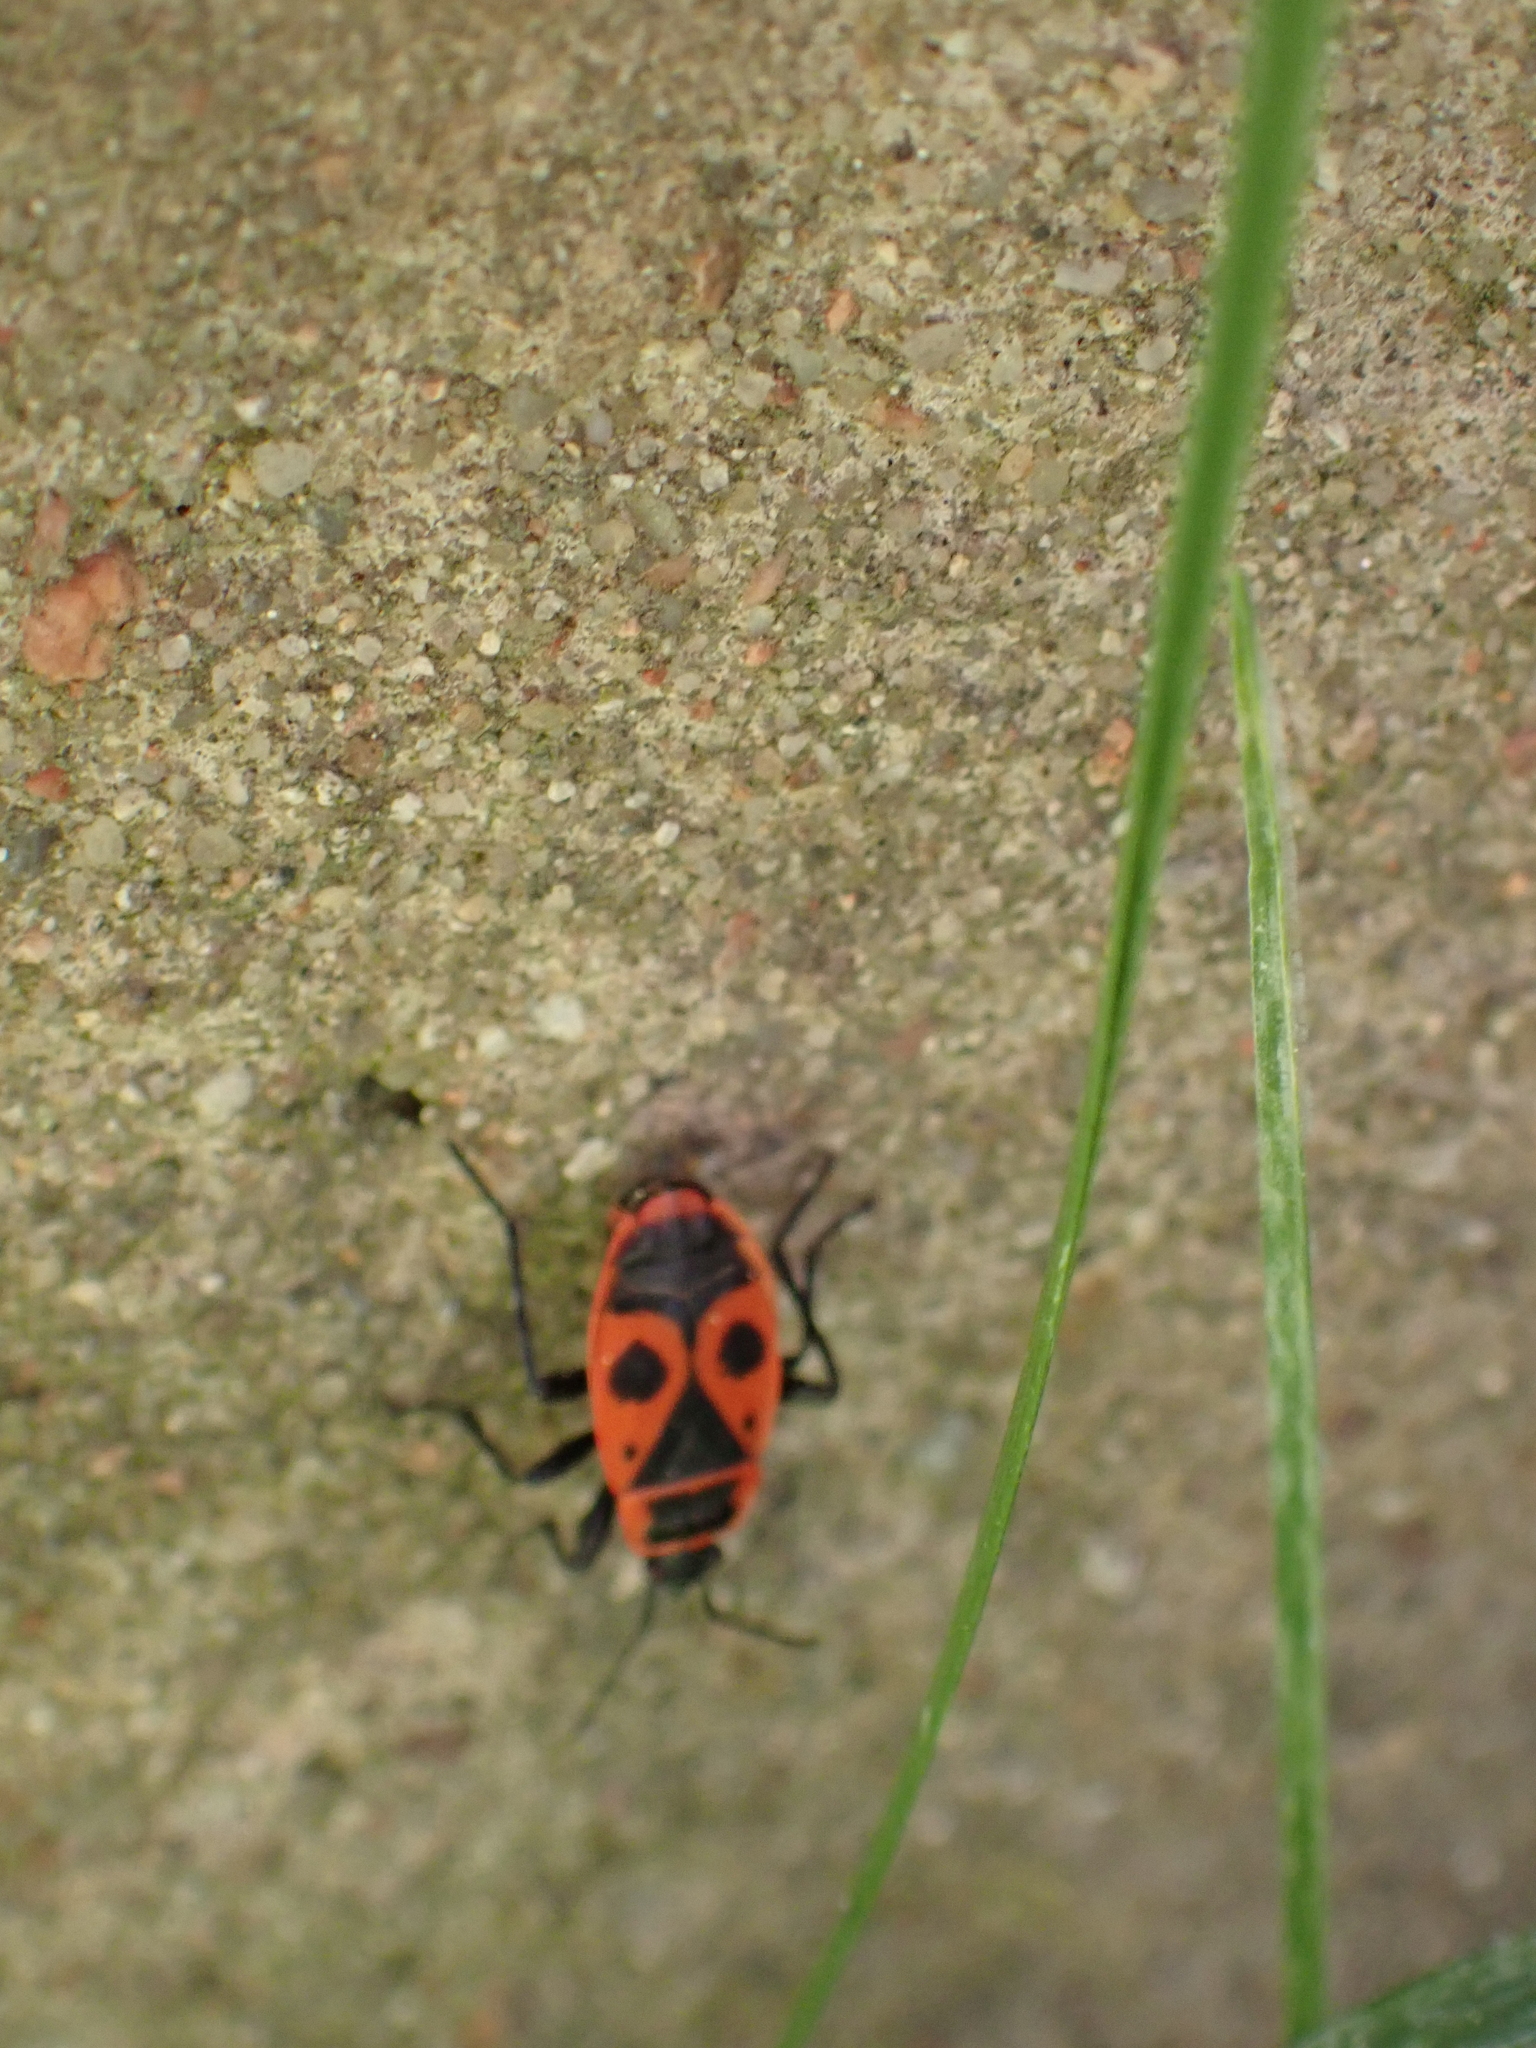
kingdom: Animalia
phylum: Arthropoda
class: Insecta
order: Hemiptera
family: Pyrrhocoridae
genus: Pyrrhocoris
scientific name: Pyrrhocoris apterus
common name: Firebug
